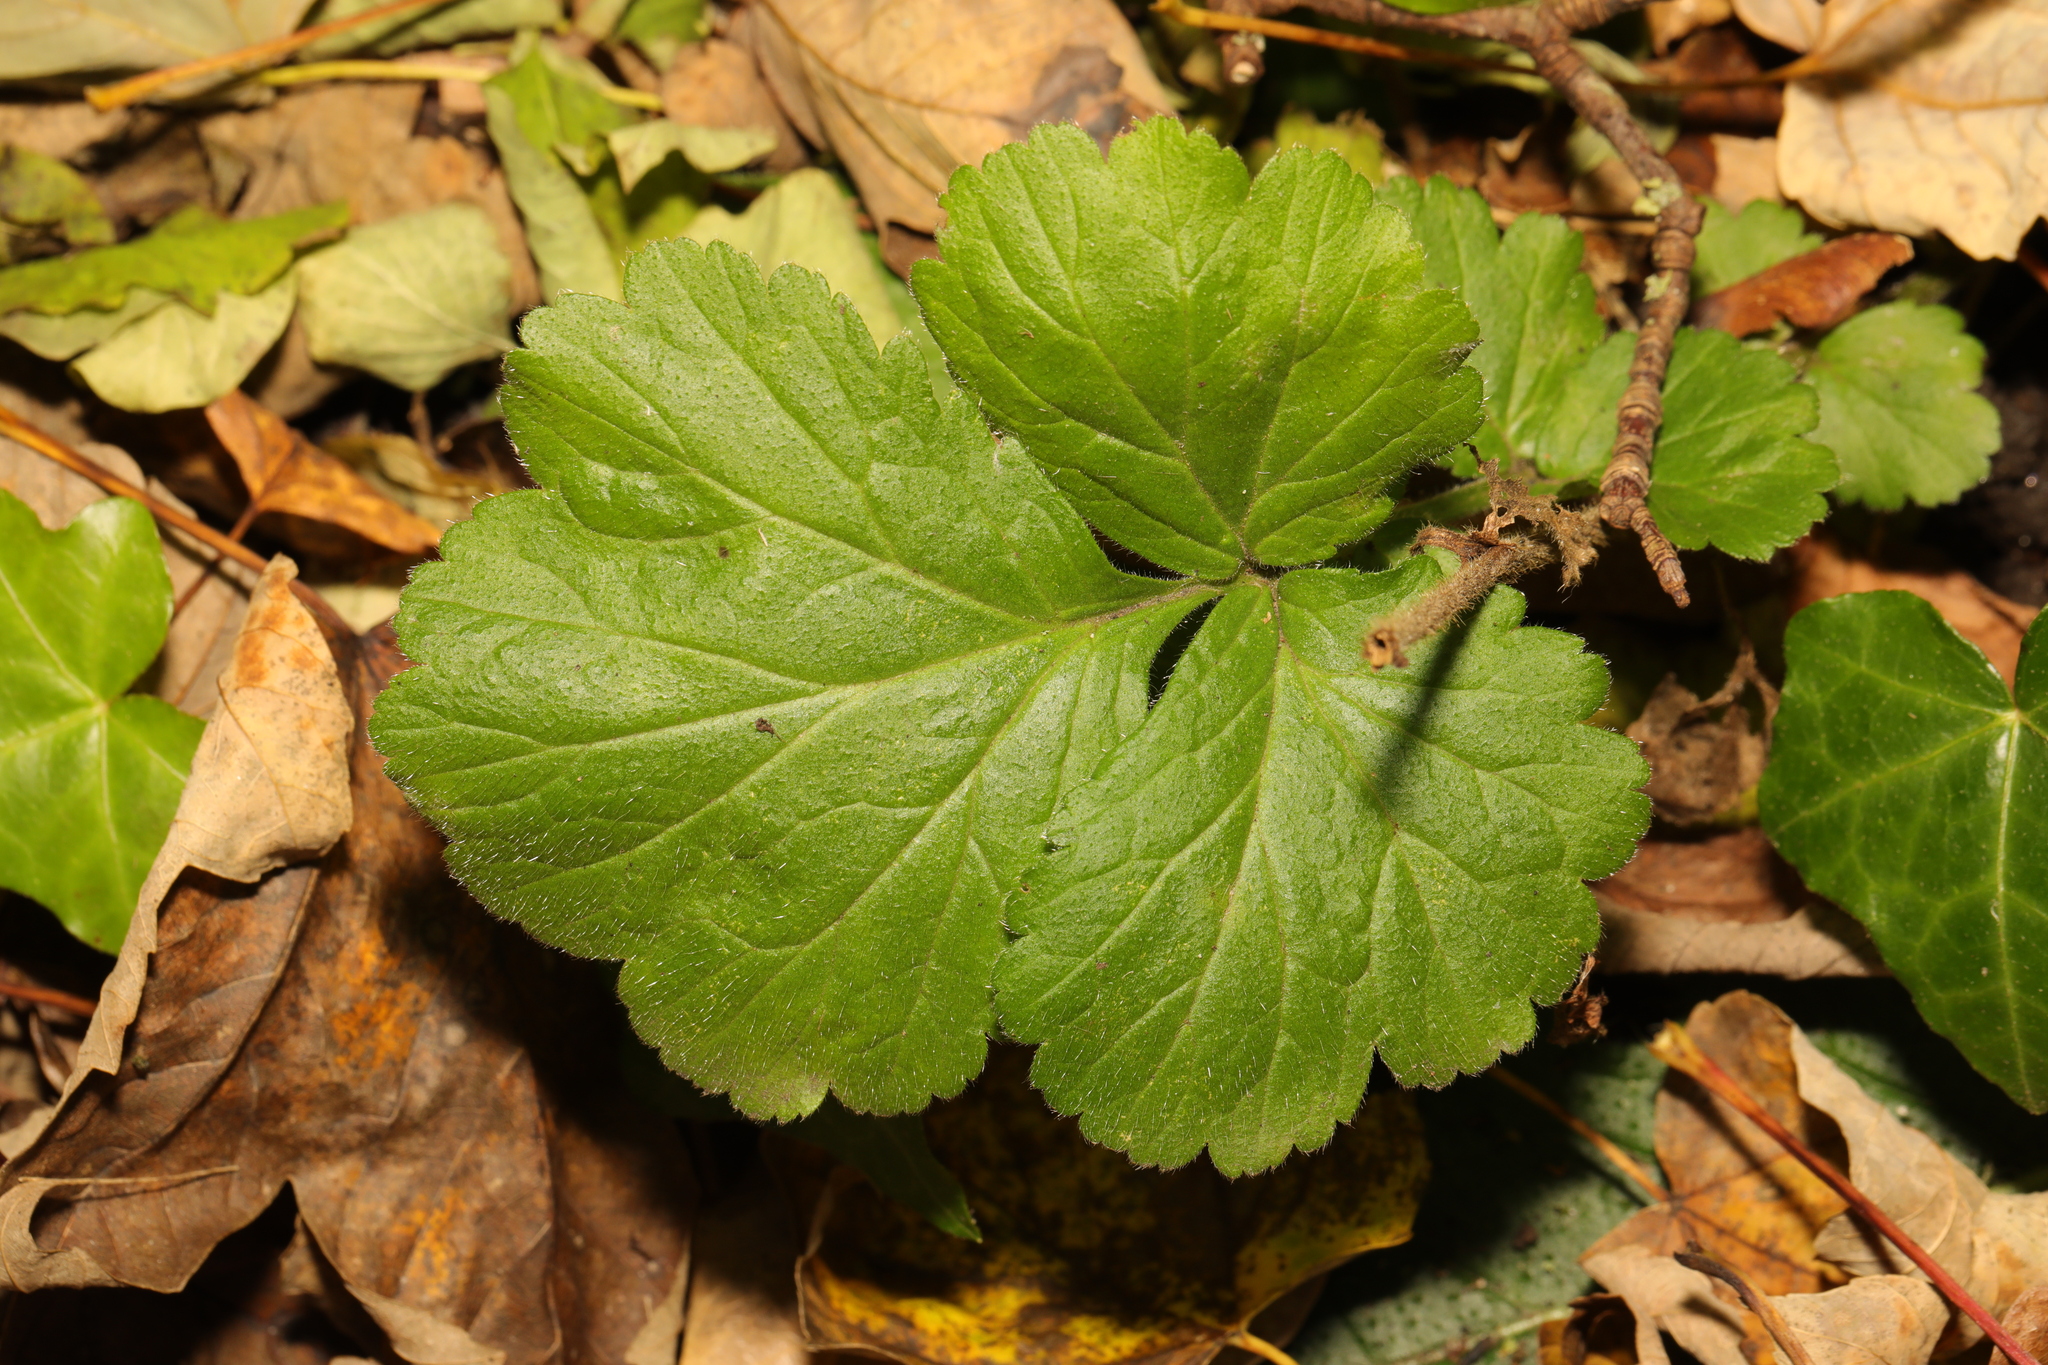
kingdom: Plantae
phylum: Tracheophyta
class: Magnoliopsida
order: Rosales
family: Rosaceae
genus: Geum
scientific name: Geum urbanum
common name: Wood avens
